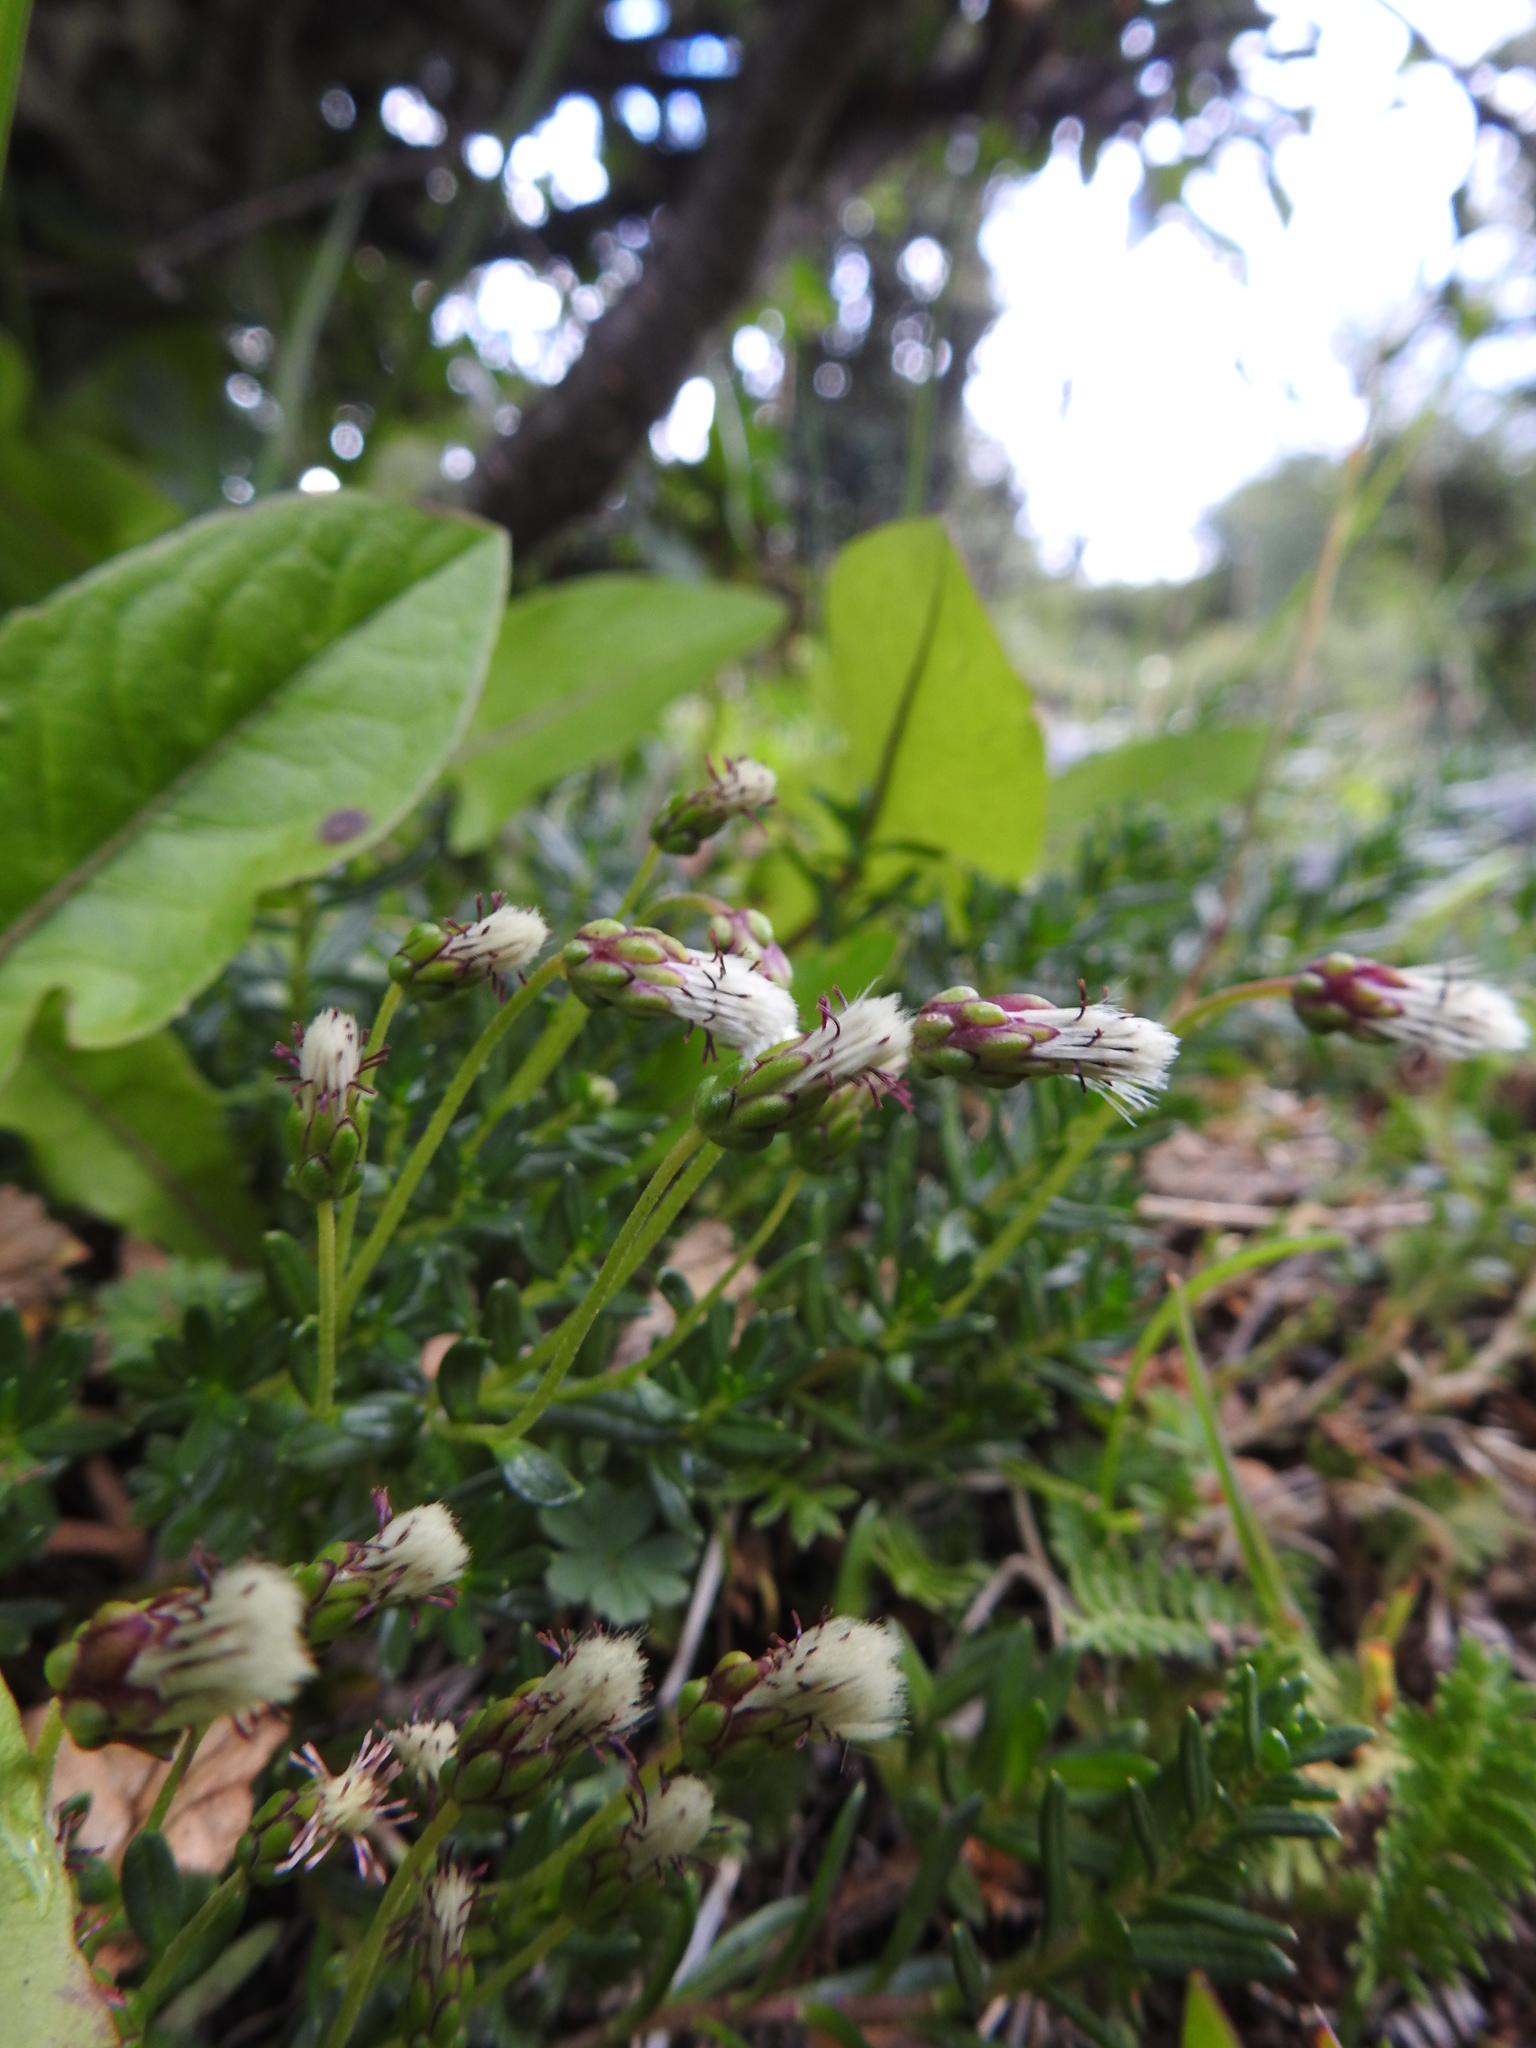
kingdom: Plantae
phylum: Tracheophyta
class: Magnoliopsida
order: Asterales
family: Asteraceae
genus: Baccharis
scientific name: Baccharis nivalis
